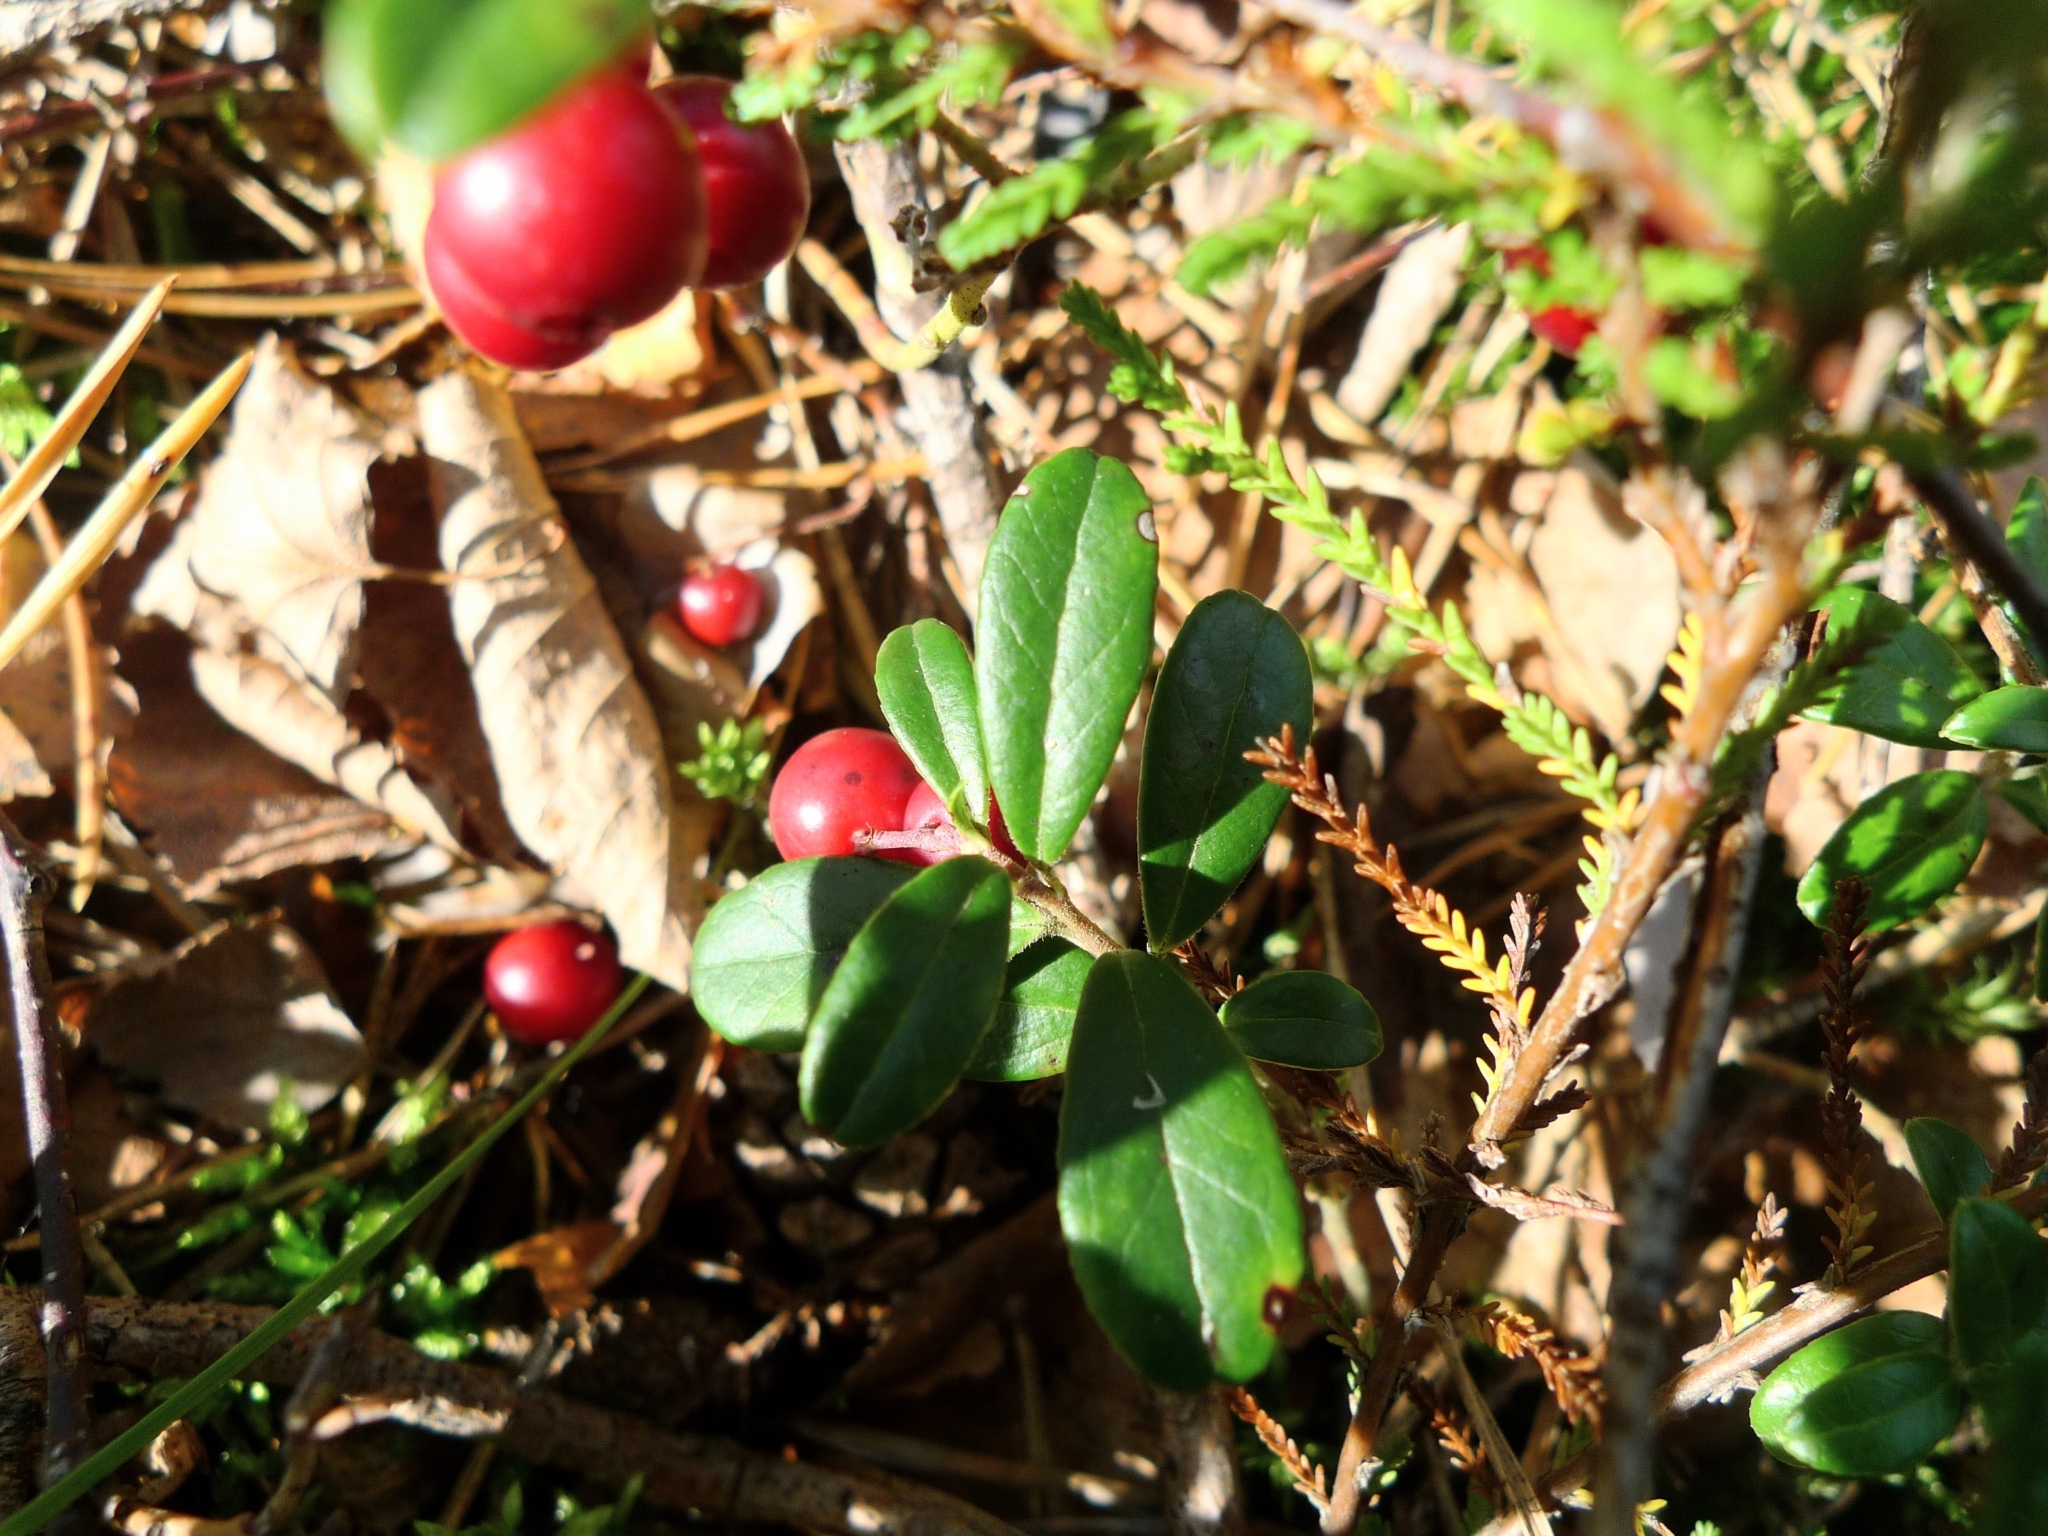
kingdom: Plantae
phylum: Tracheophyta
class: Magnoliopsida
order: Ericales
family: Ericaceae
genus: Vaccinium
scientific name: Vaccinium vitis-idaea
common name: Cowberry
